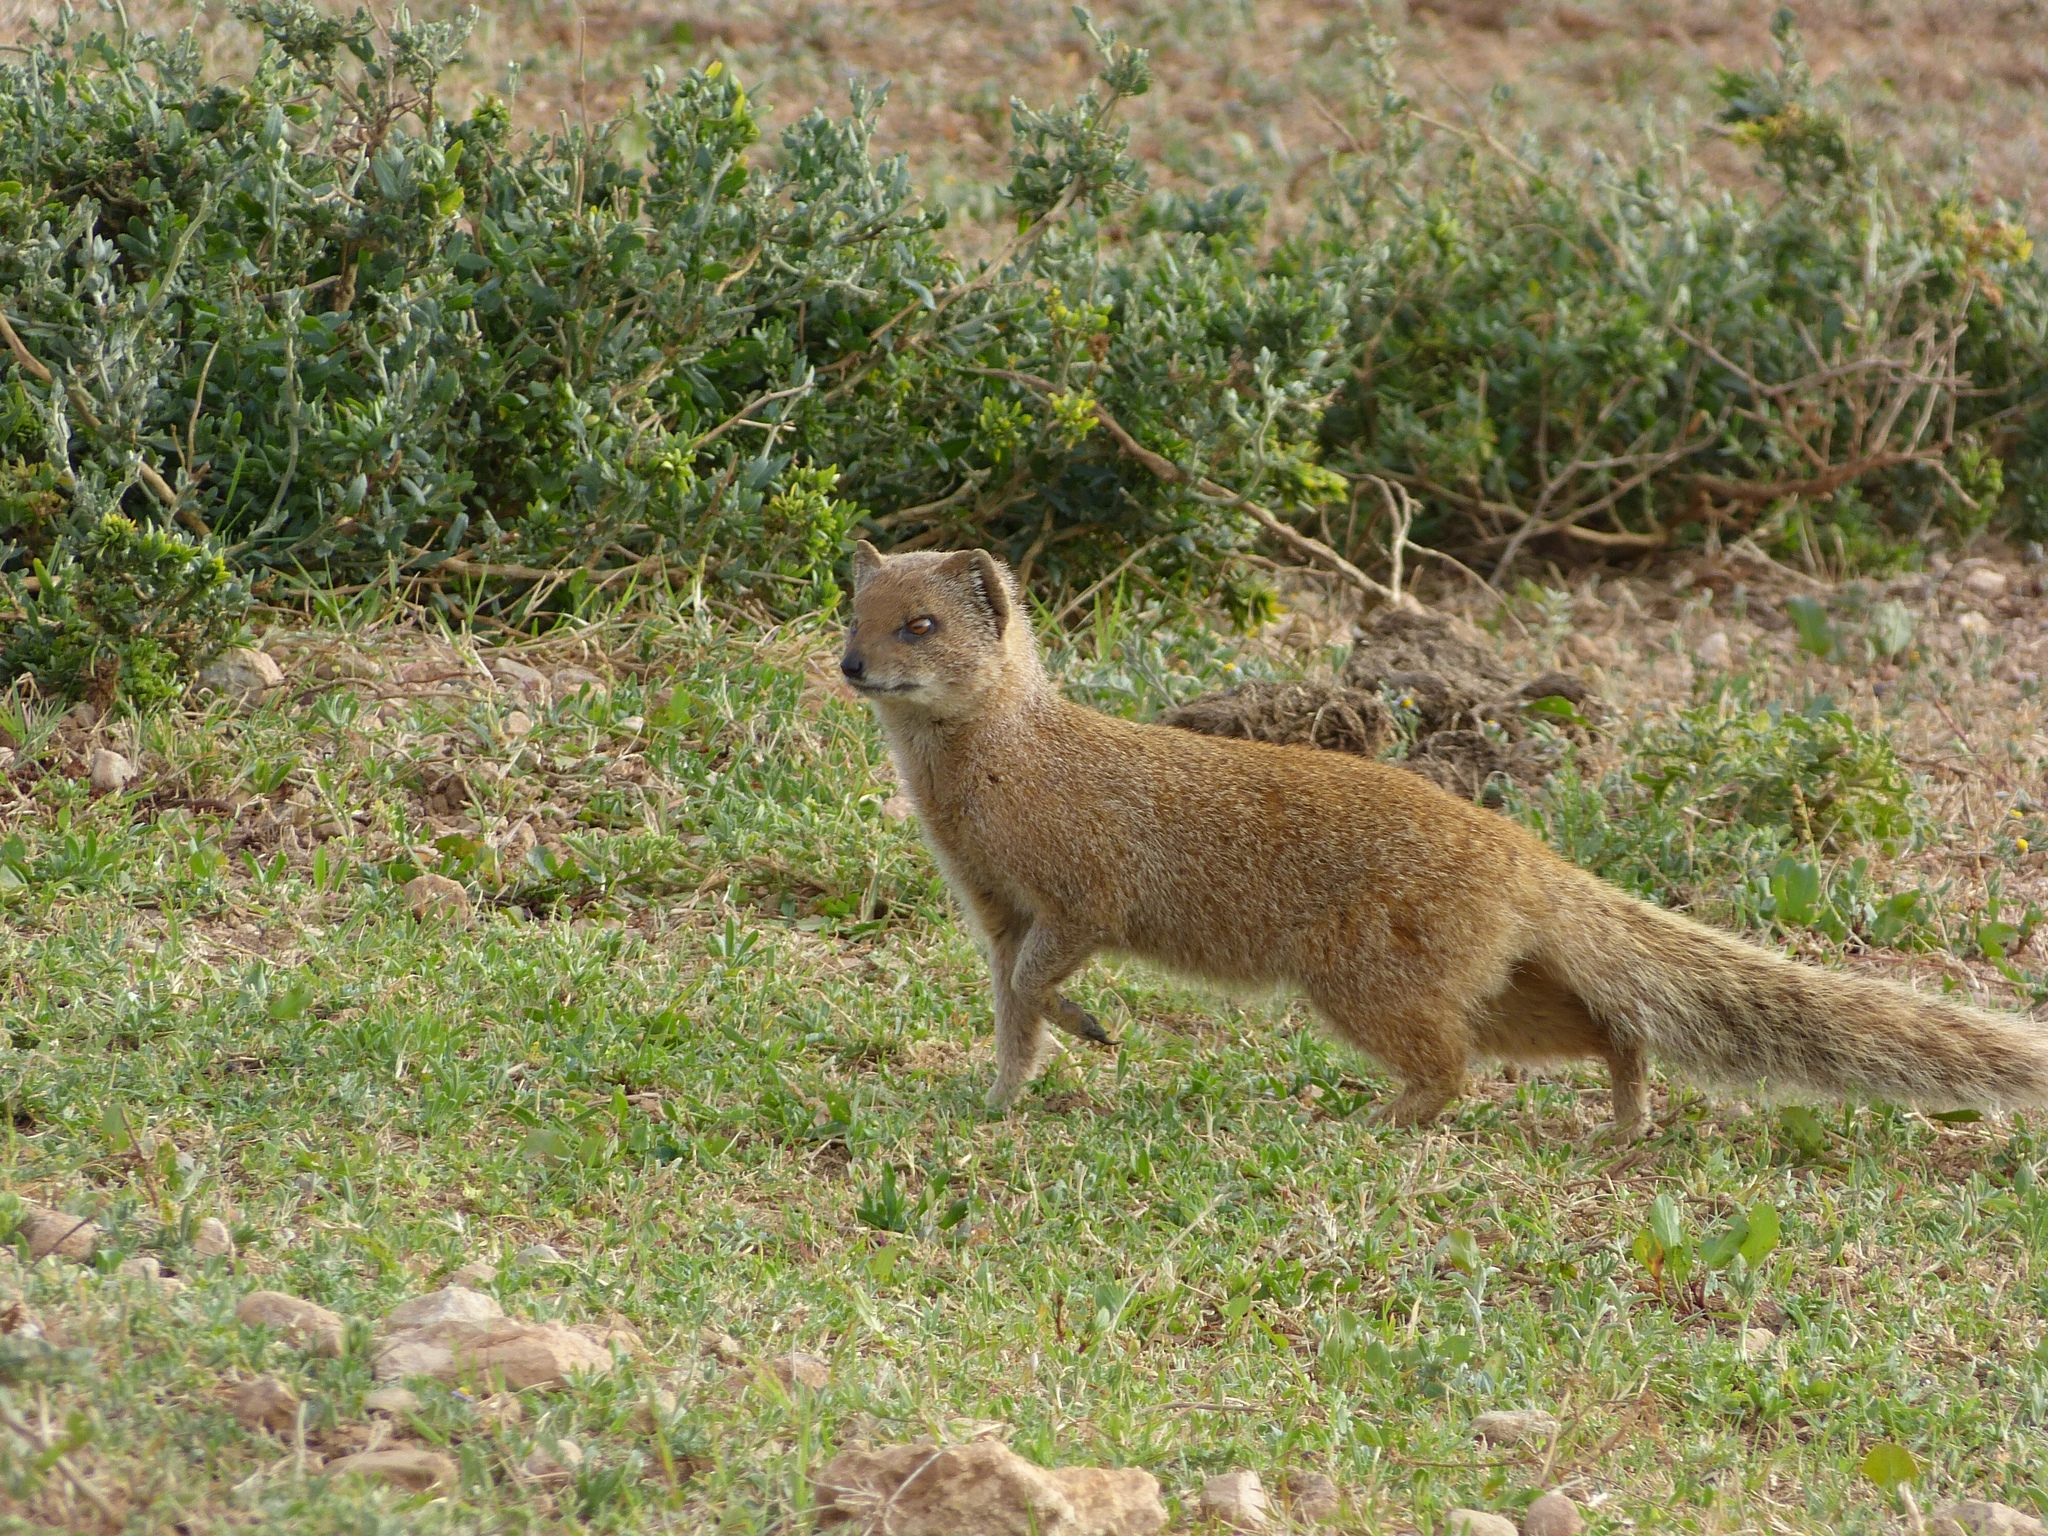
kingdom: Animalia
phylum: Chordata
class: Mammalia
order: Carnivora
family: Herpestidae
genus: Cynictis
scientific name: Cynictis penicillata
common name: Yellow mongoose
